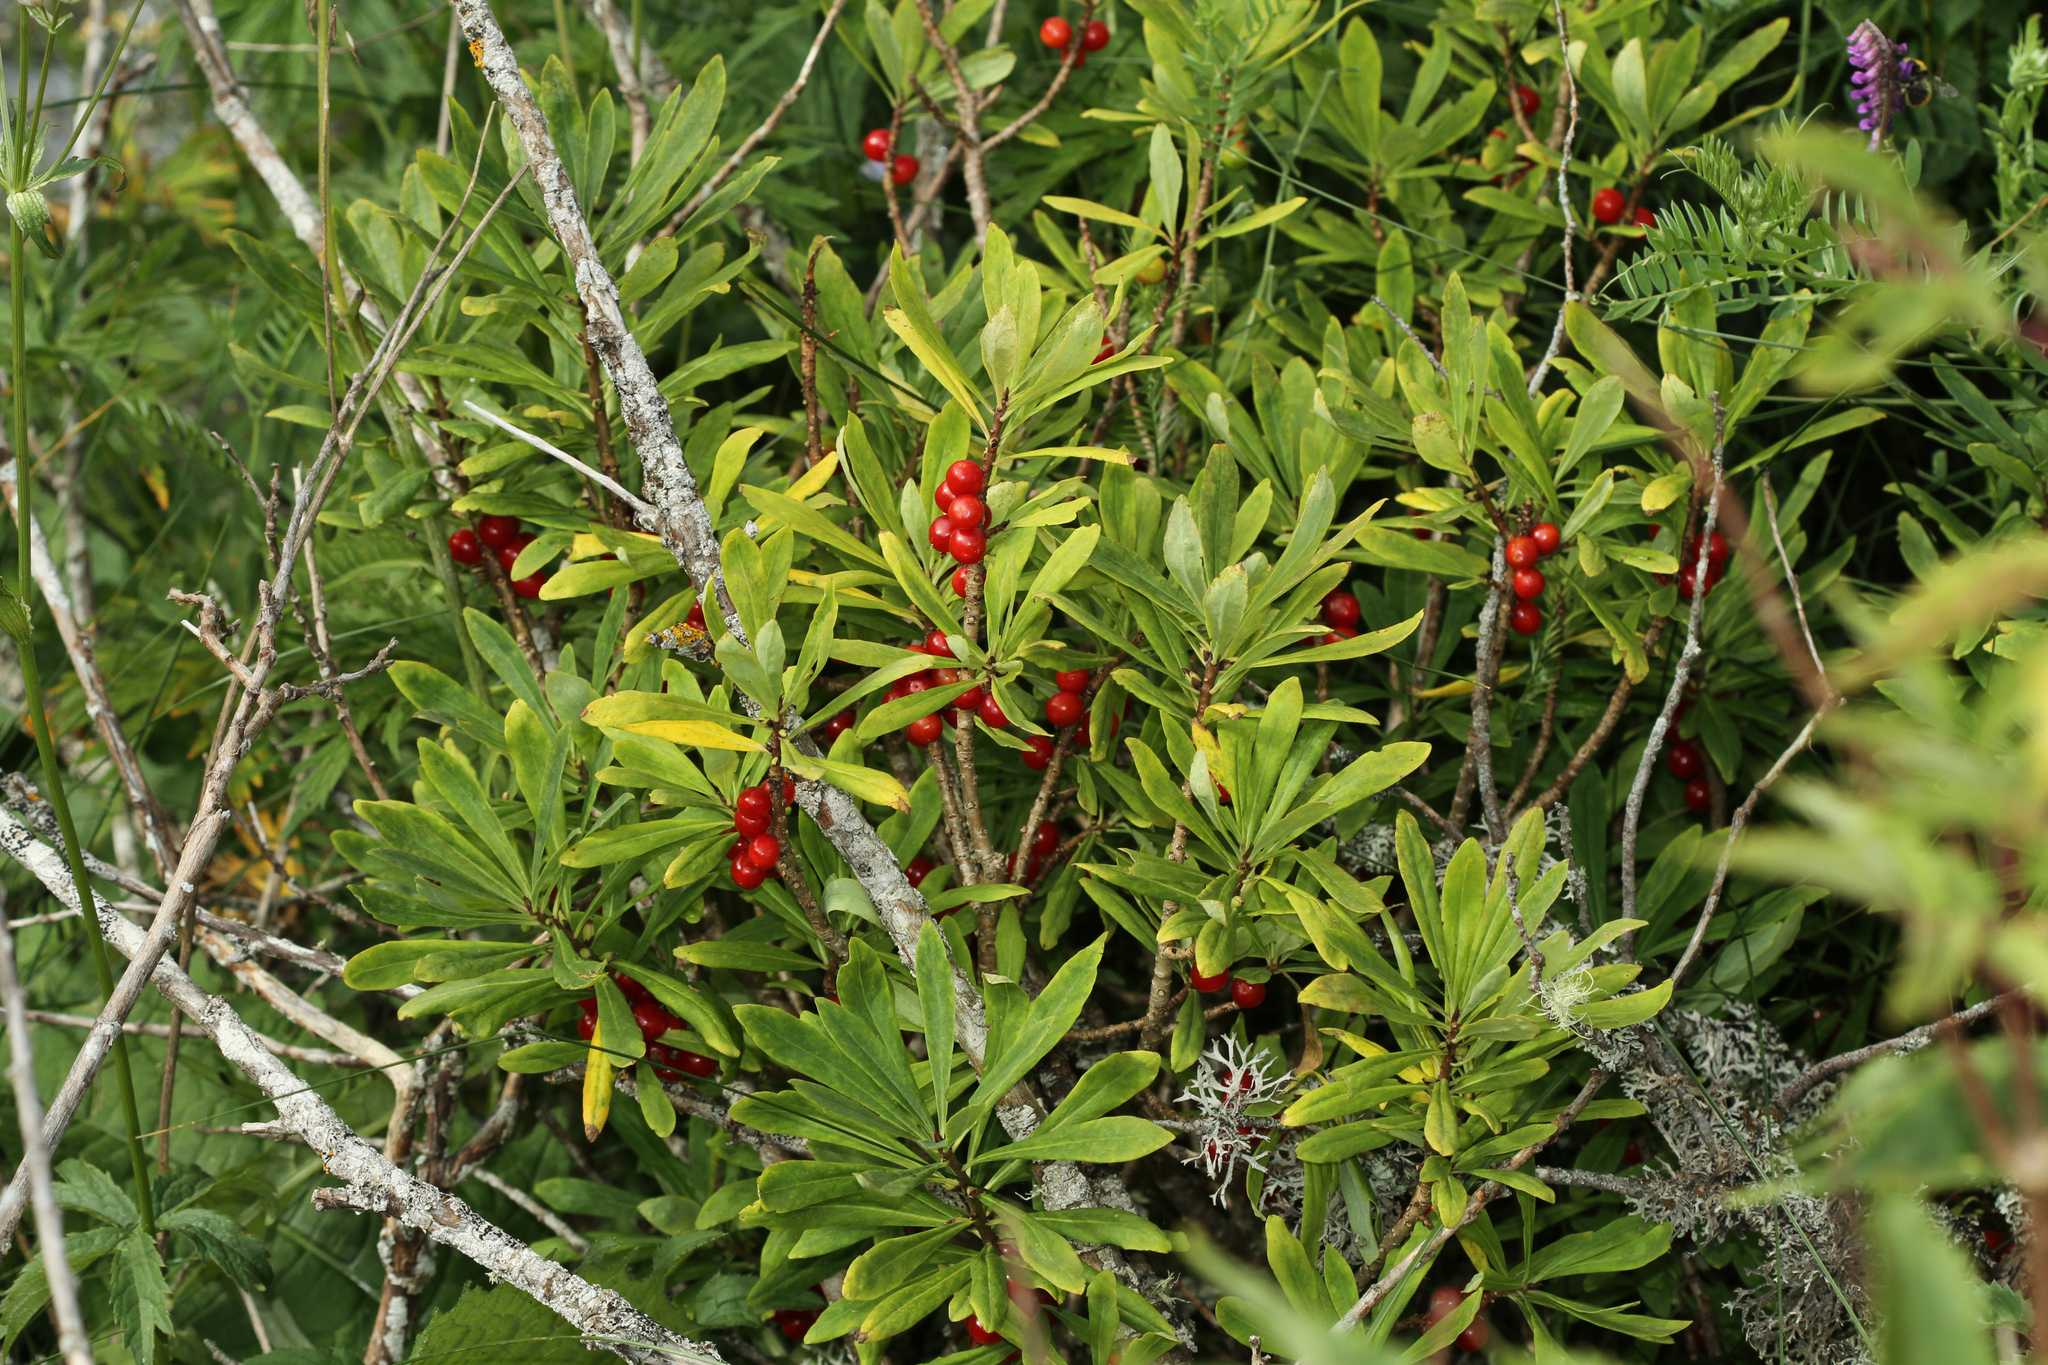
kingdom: Plantae
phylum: Tracheophyta
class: Magnoliopsida
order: Malvales
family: Thymelaeaceae
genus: Daphne
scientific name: Daphne mezereum
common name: Mezereon
